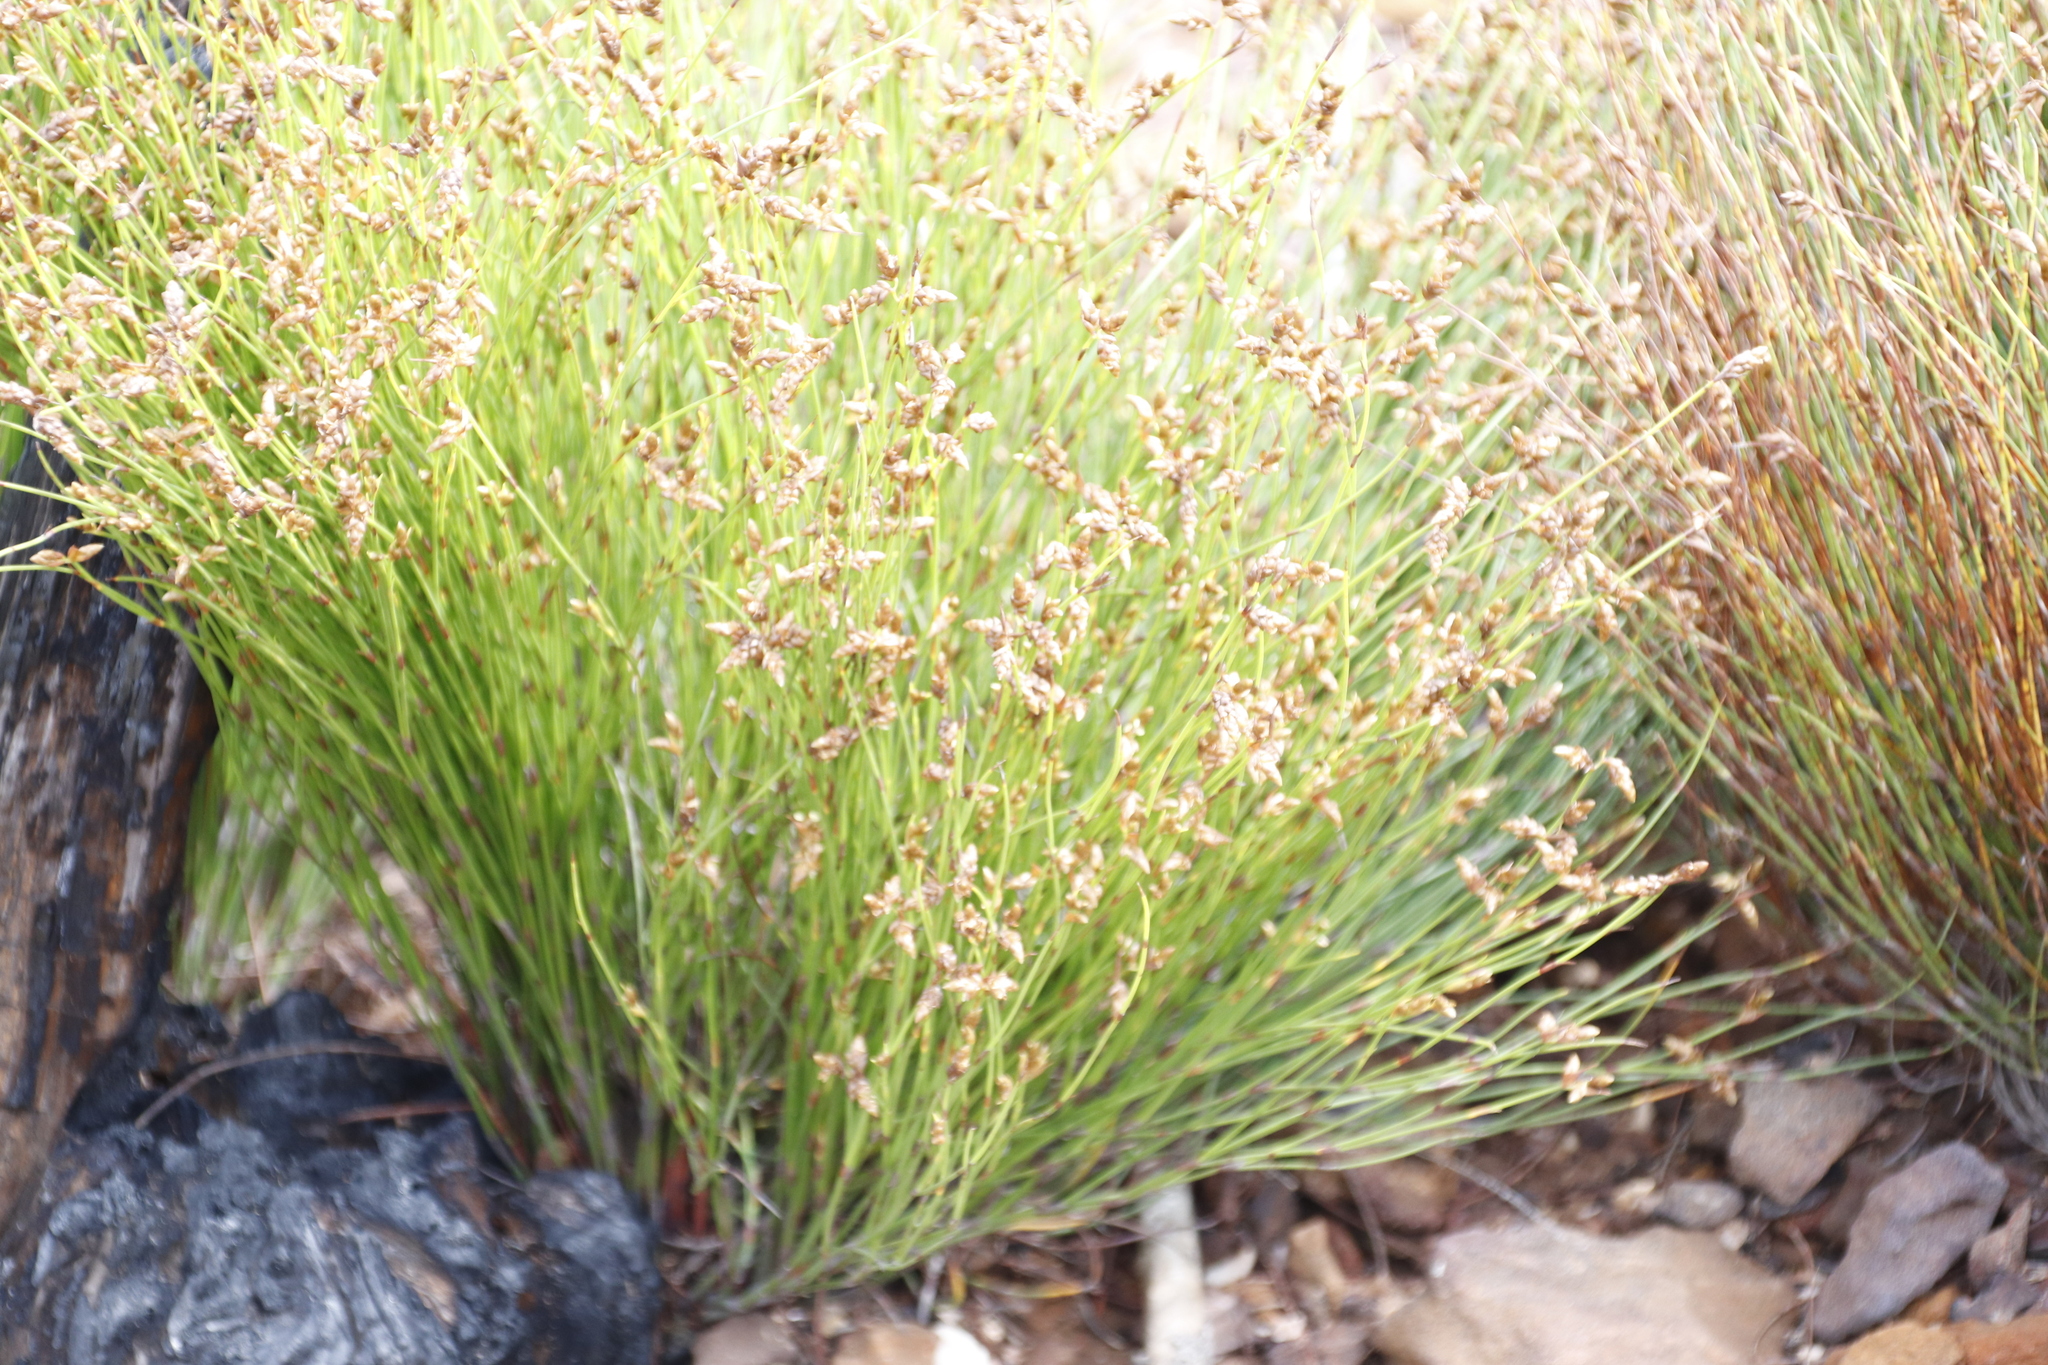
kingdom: Plantae
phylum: Tracheophyta
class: Liliopsida
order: Poales
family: Restionaceae
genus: Mastersiella
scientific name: Mastersiella digitata
